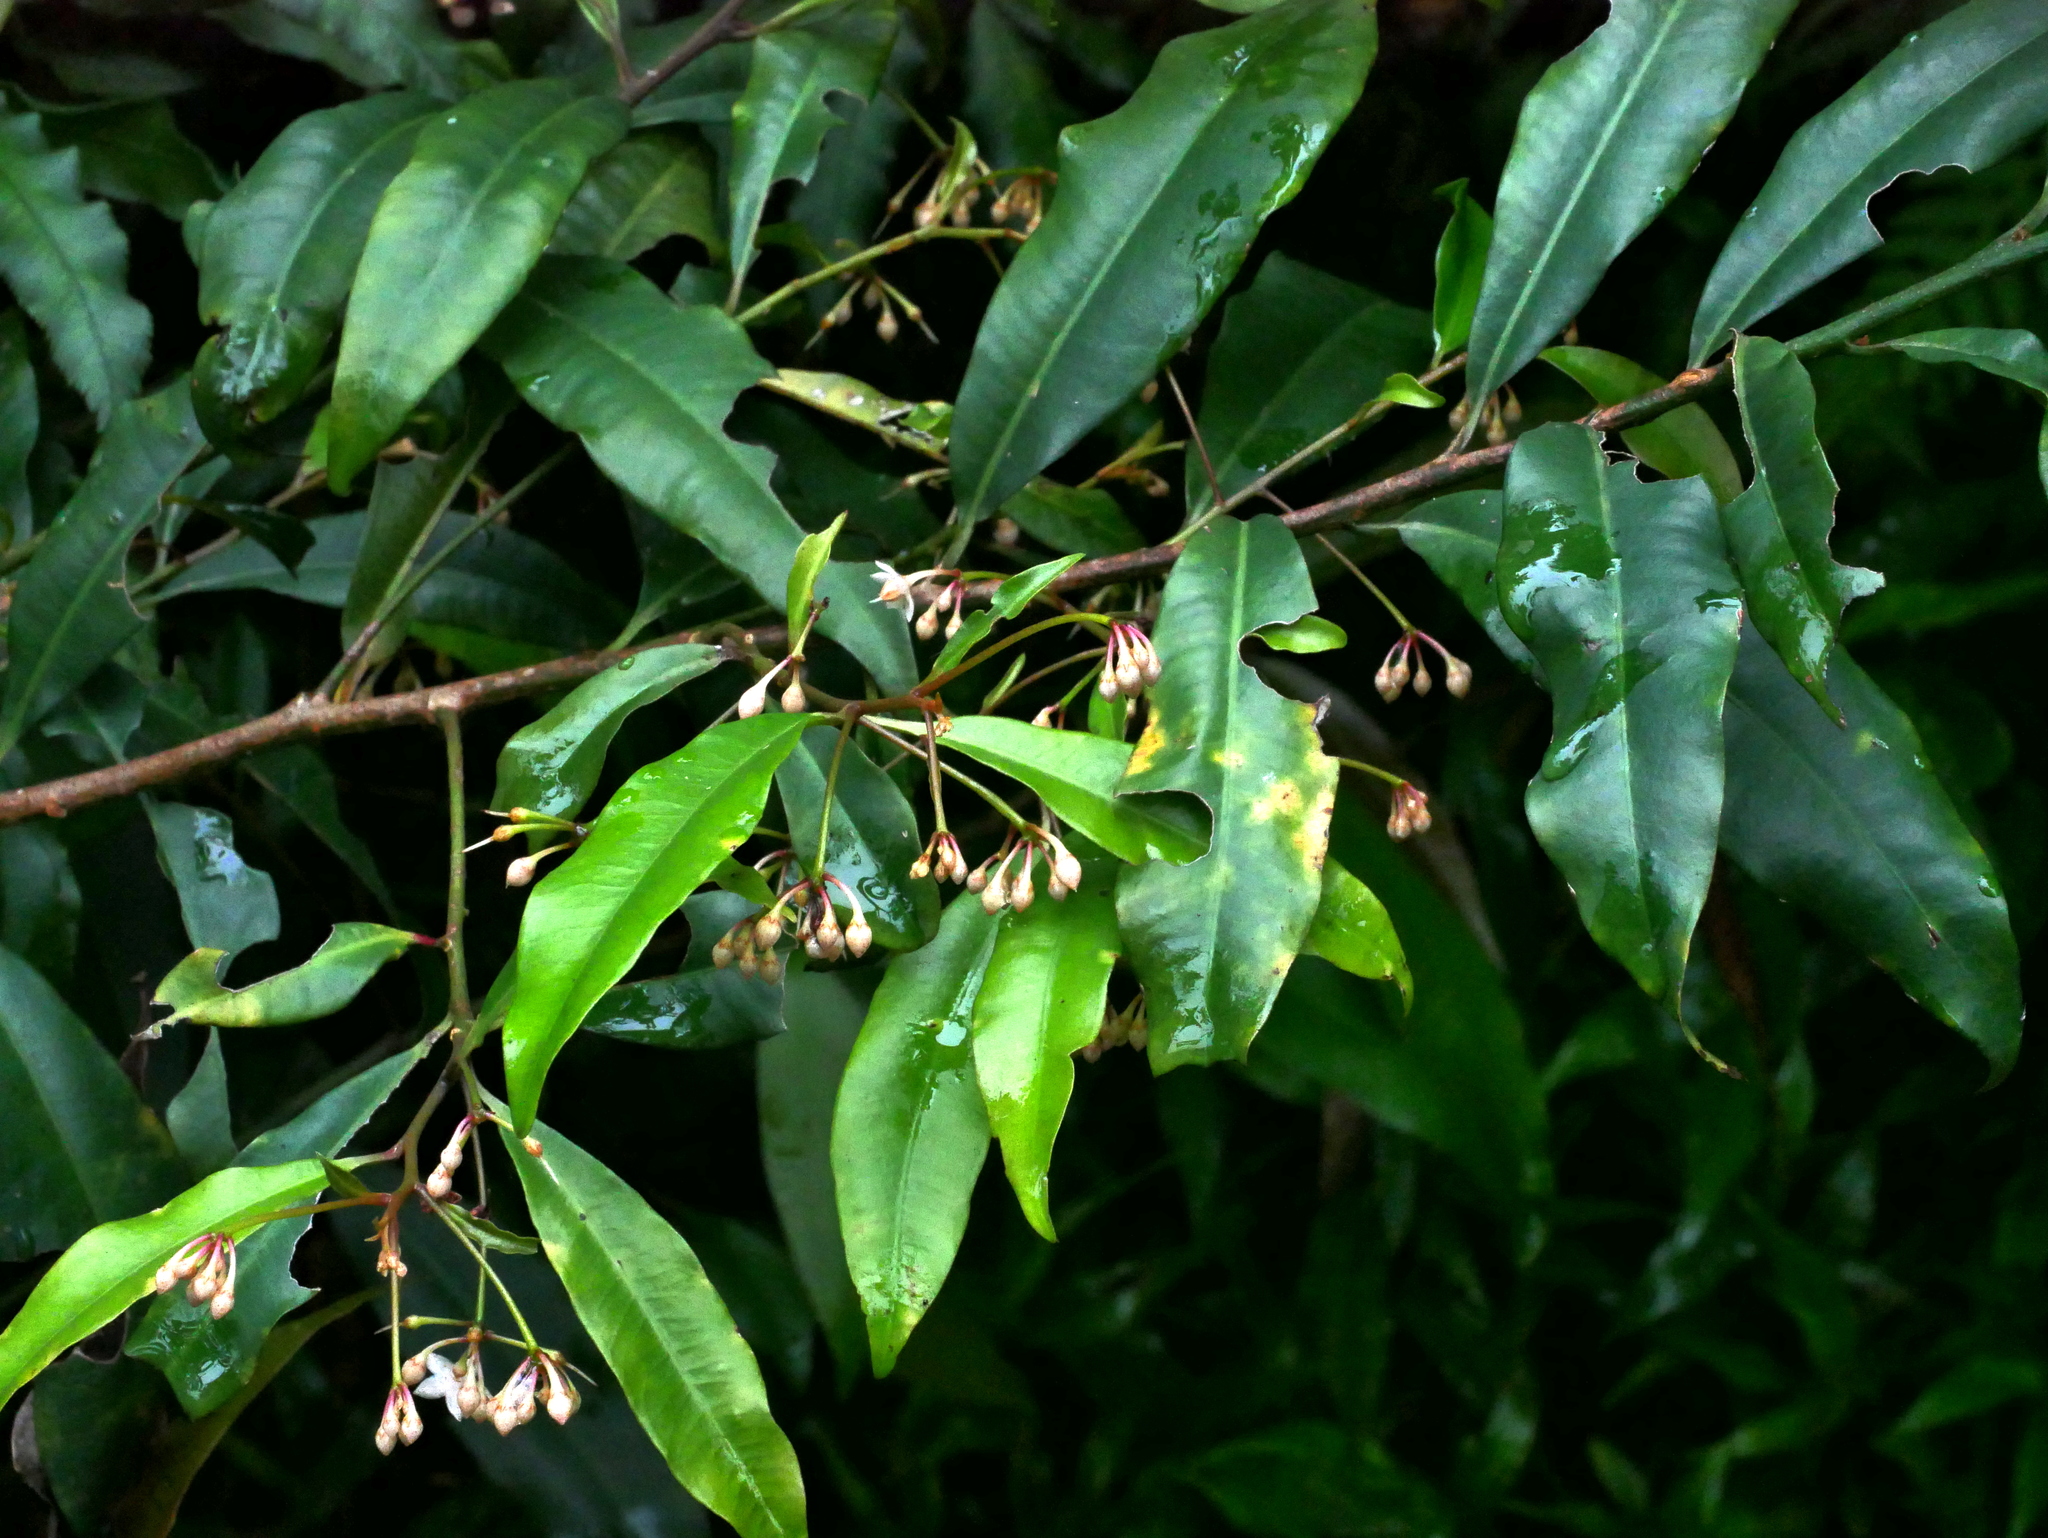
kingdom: Plantae
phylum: Tracheophyta
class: Magnoliopsida
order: Ericales
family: Primulaceae
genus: Ardisia
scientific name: Ardisia quinquegona
